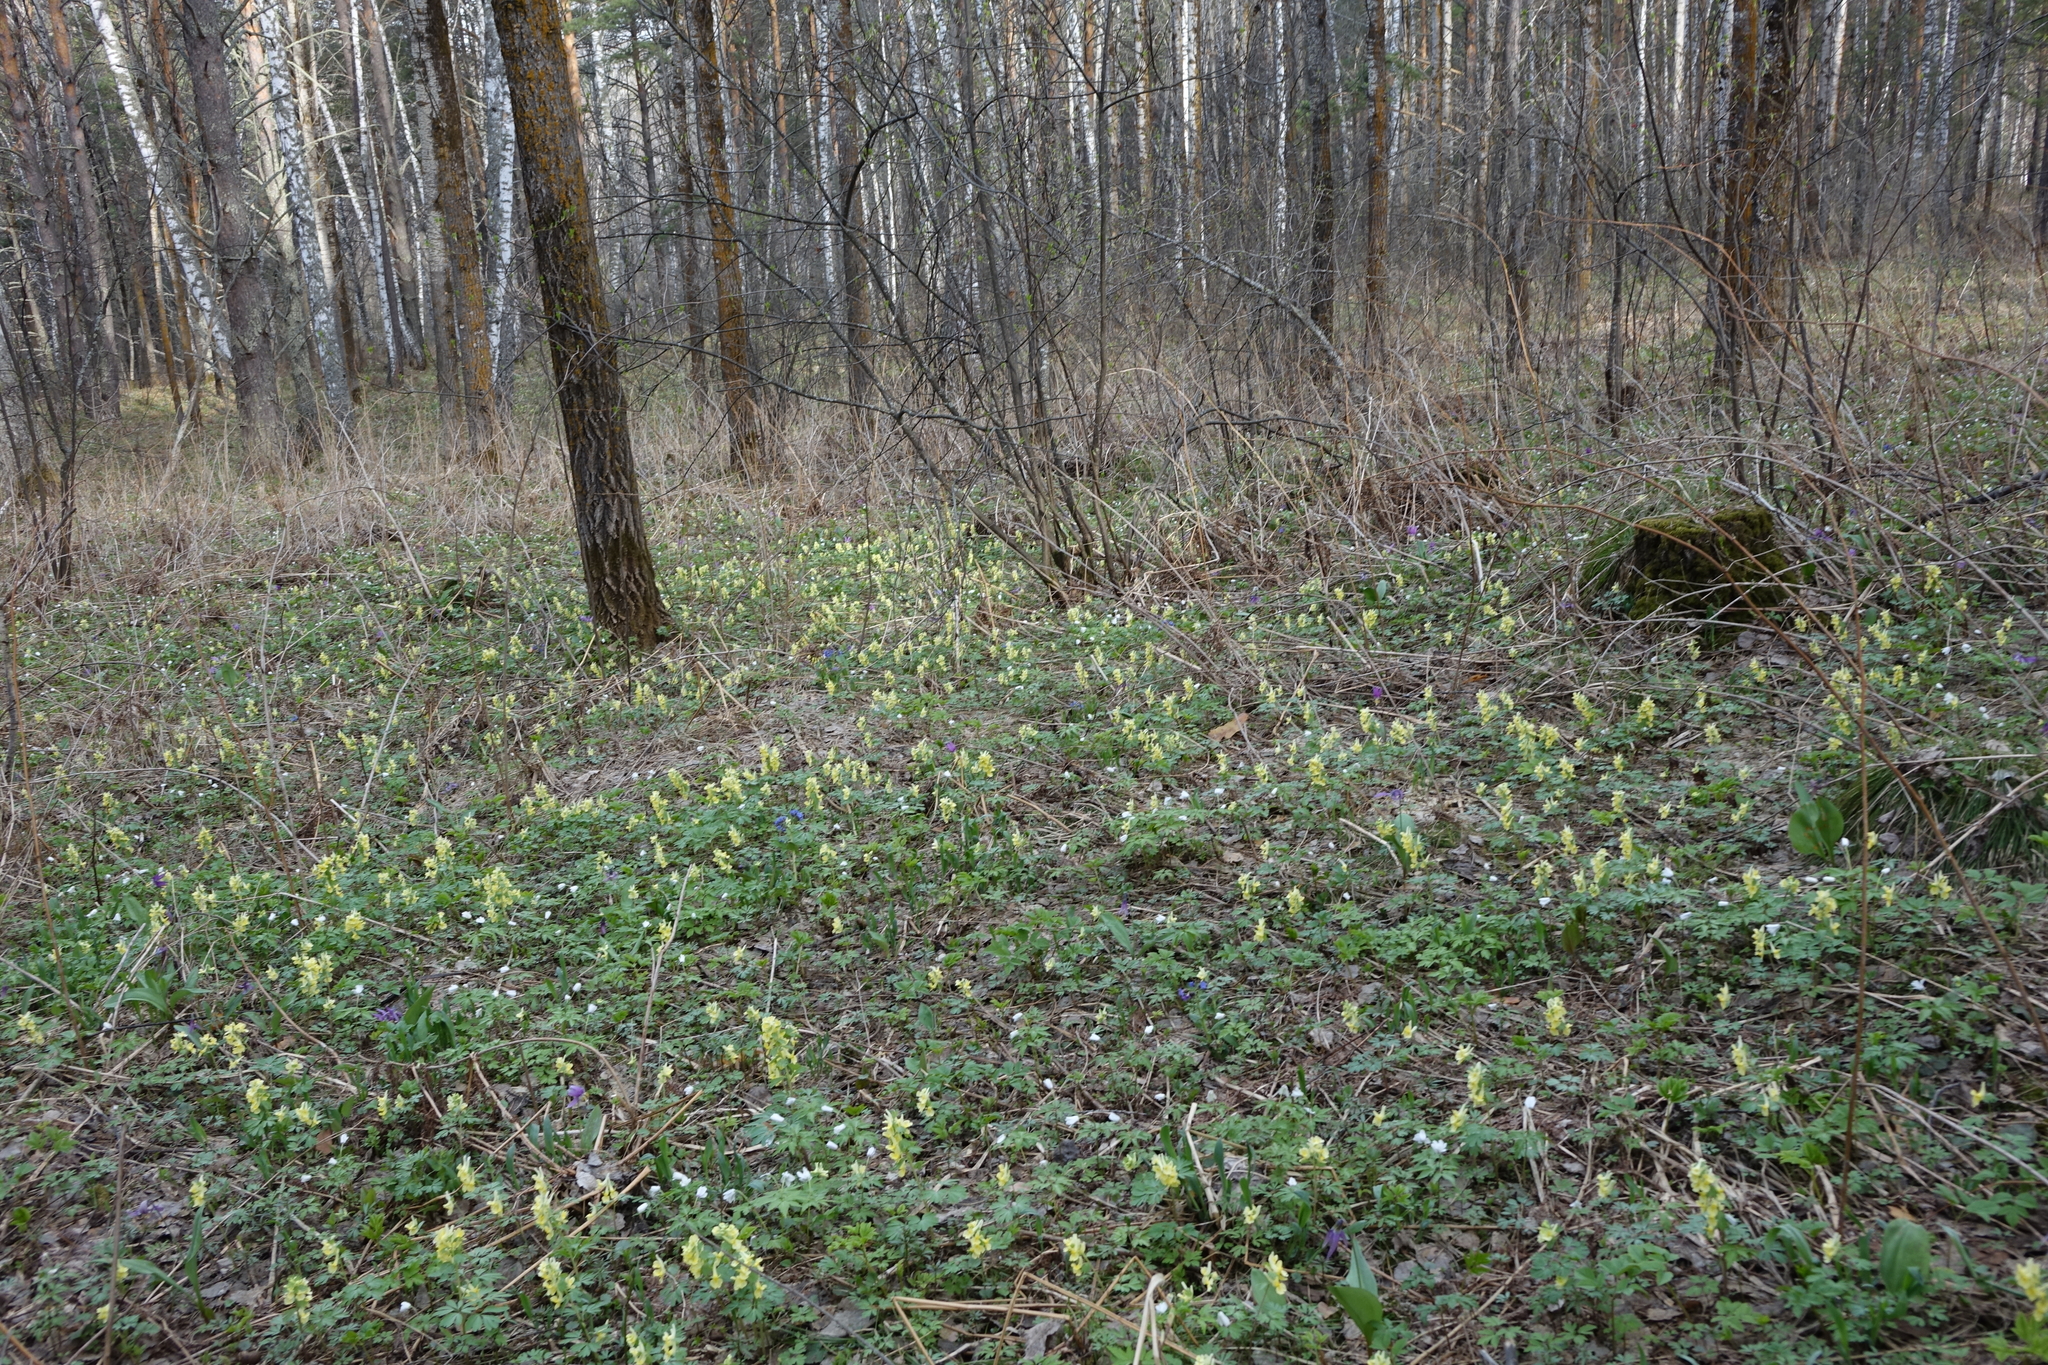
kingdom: Plantae
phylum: Tracheophyta
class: Magnoliopsida
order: Ranunculales
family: Papaveraceae
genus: Corydalis
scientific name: Corydalis bracteata
